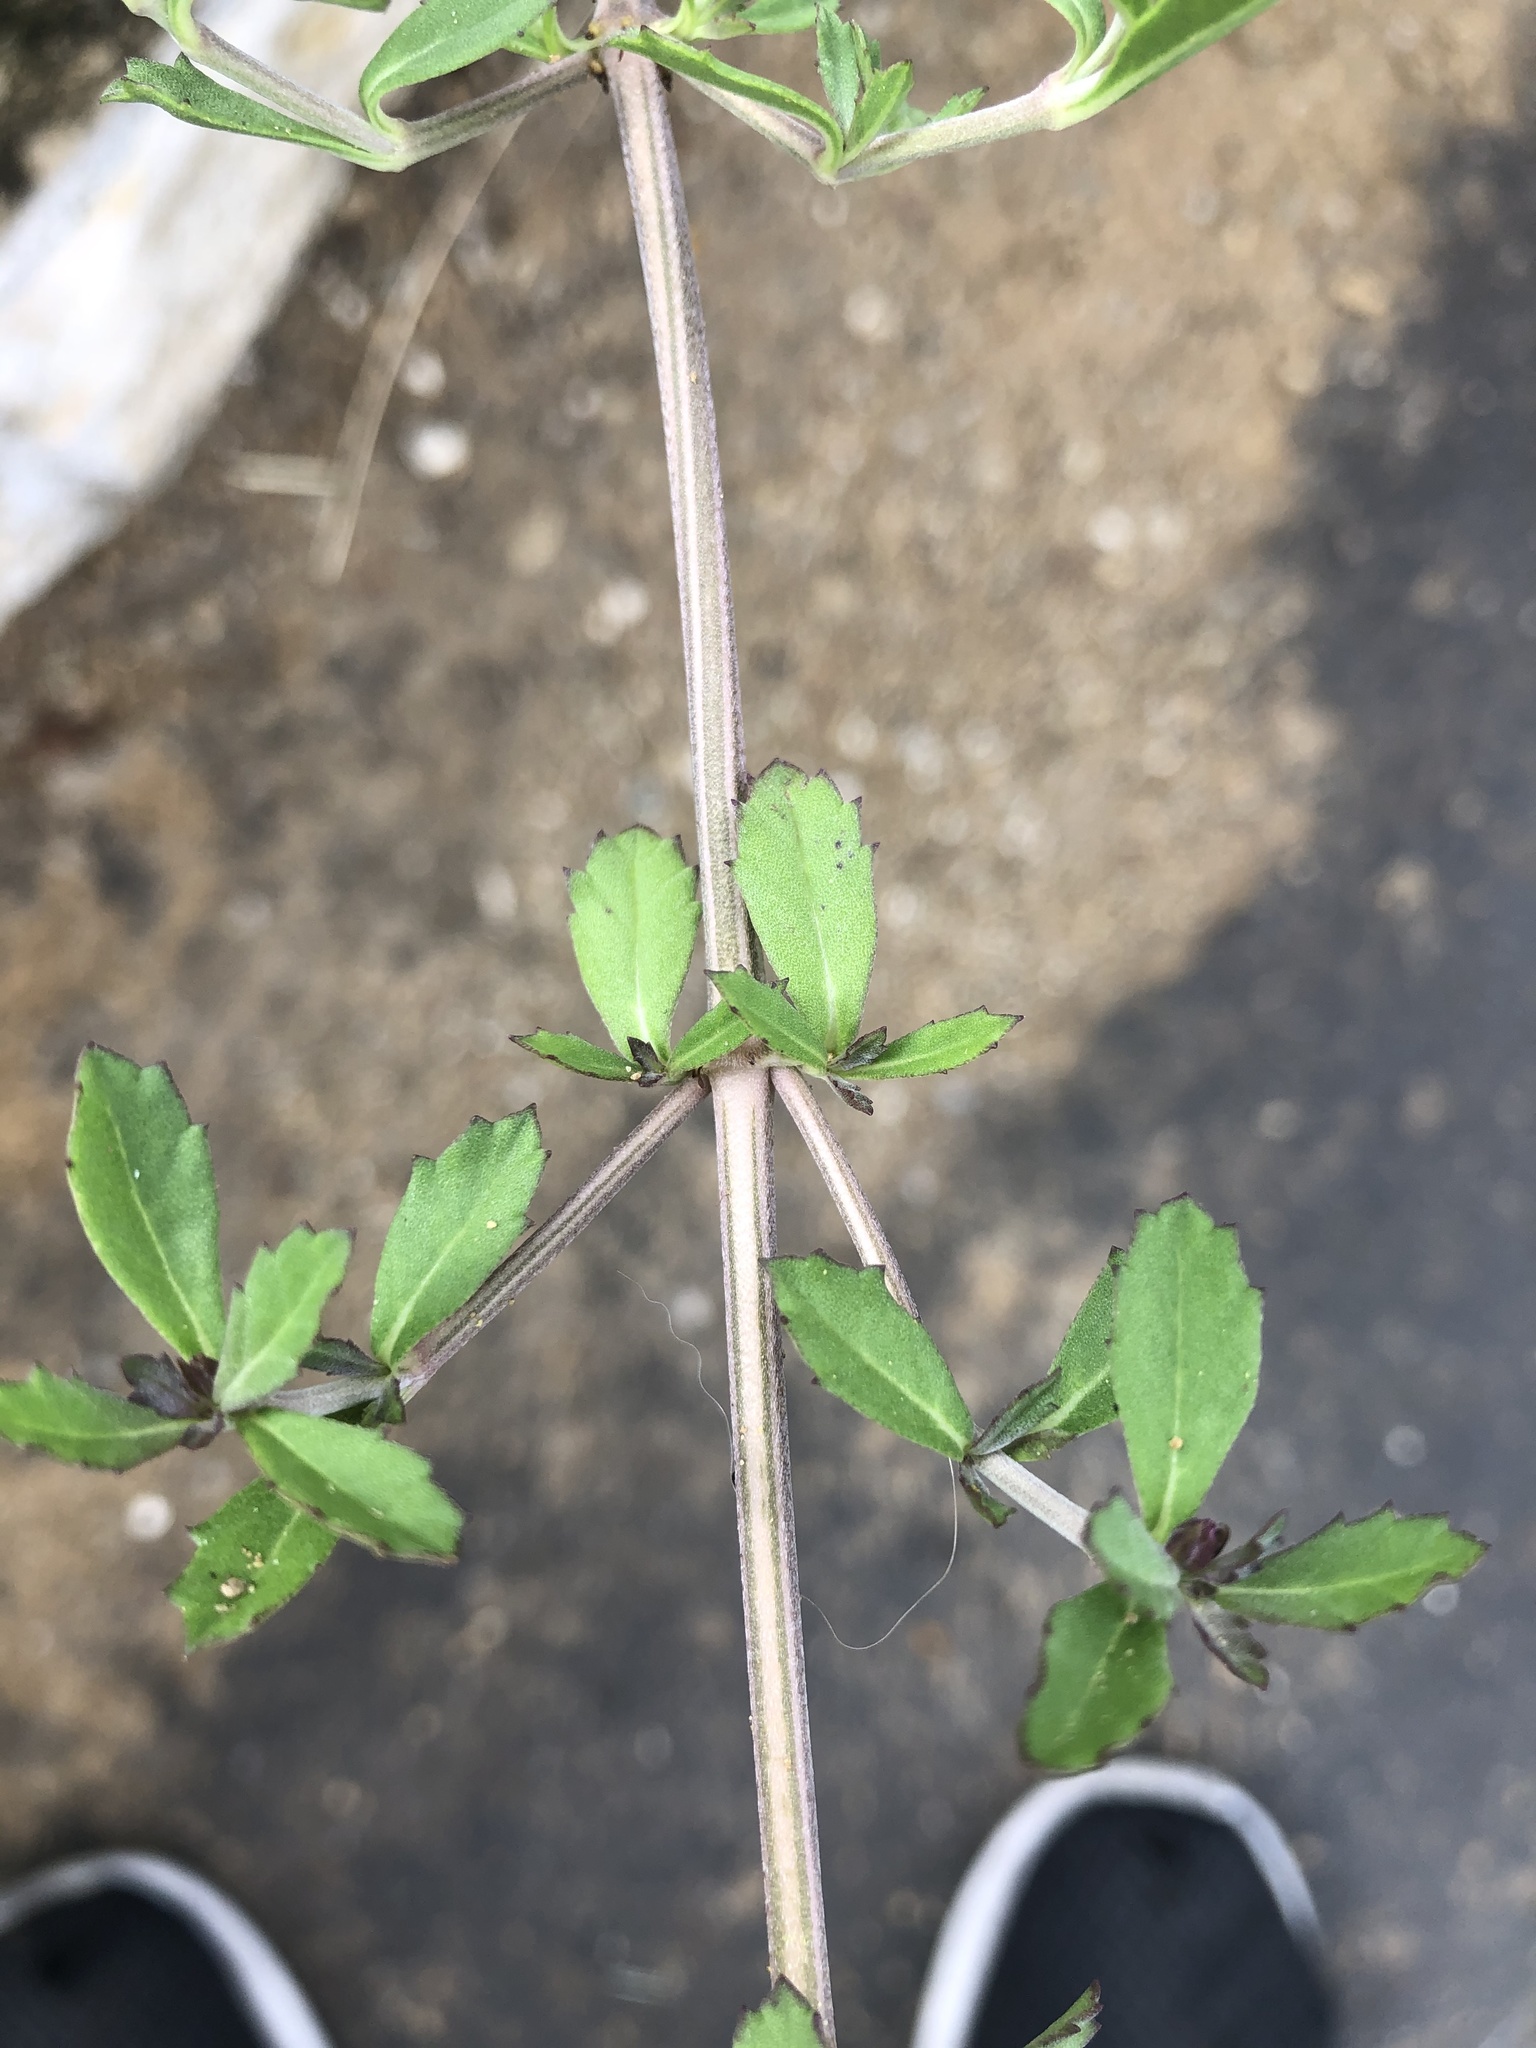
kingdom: Plantae
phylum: Tracheophyta
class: Magnoliopsida
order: Lamiales
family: Verbenaceae
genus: Phyla
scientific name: Phyla nodiflora
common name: Frogfruit
